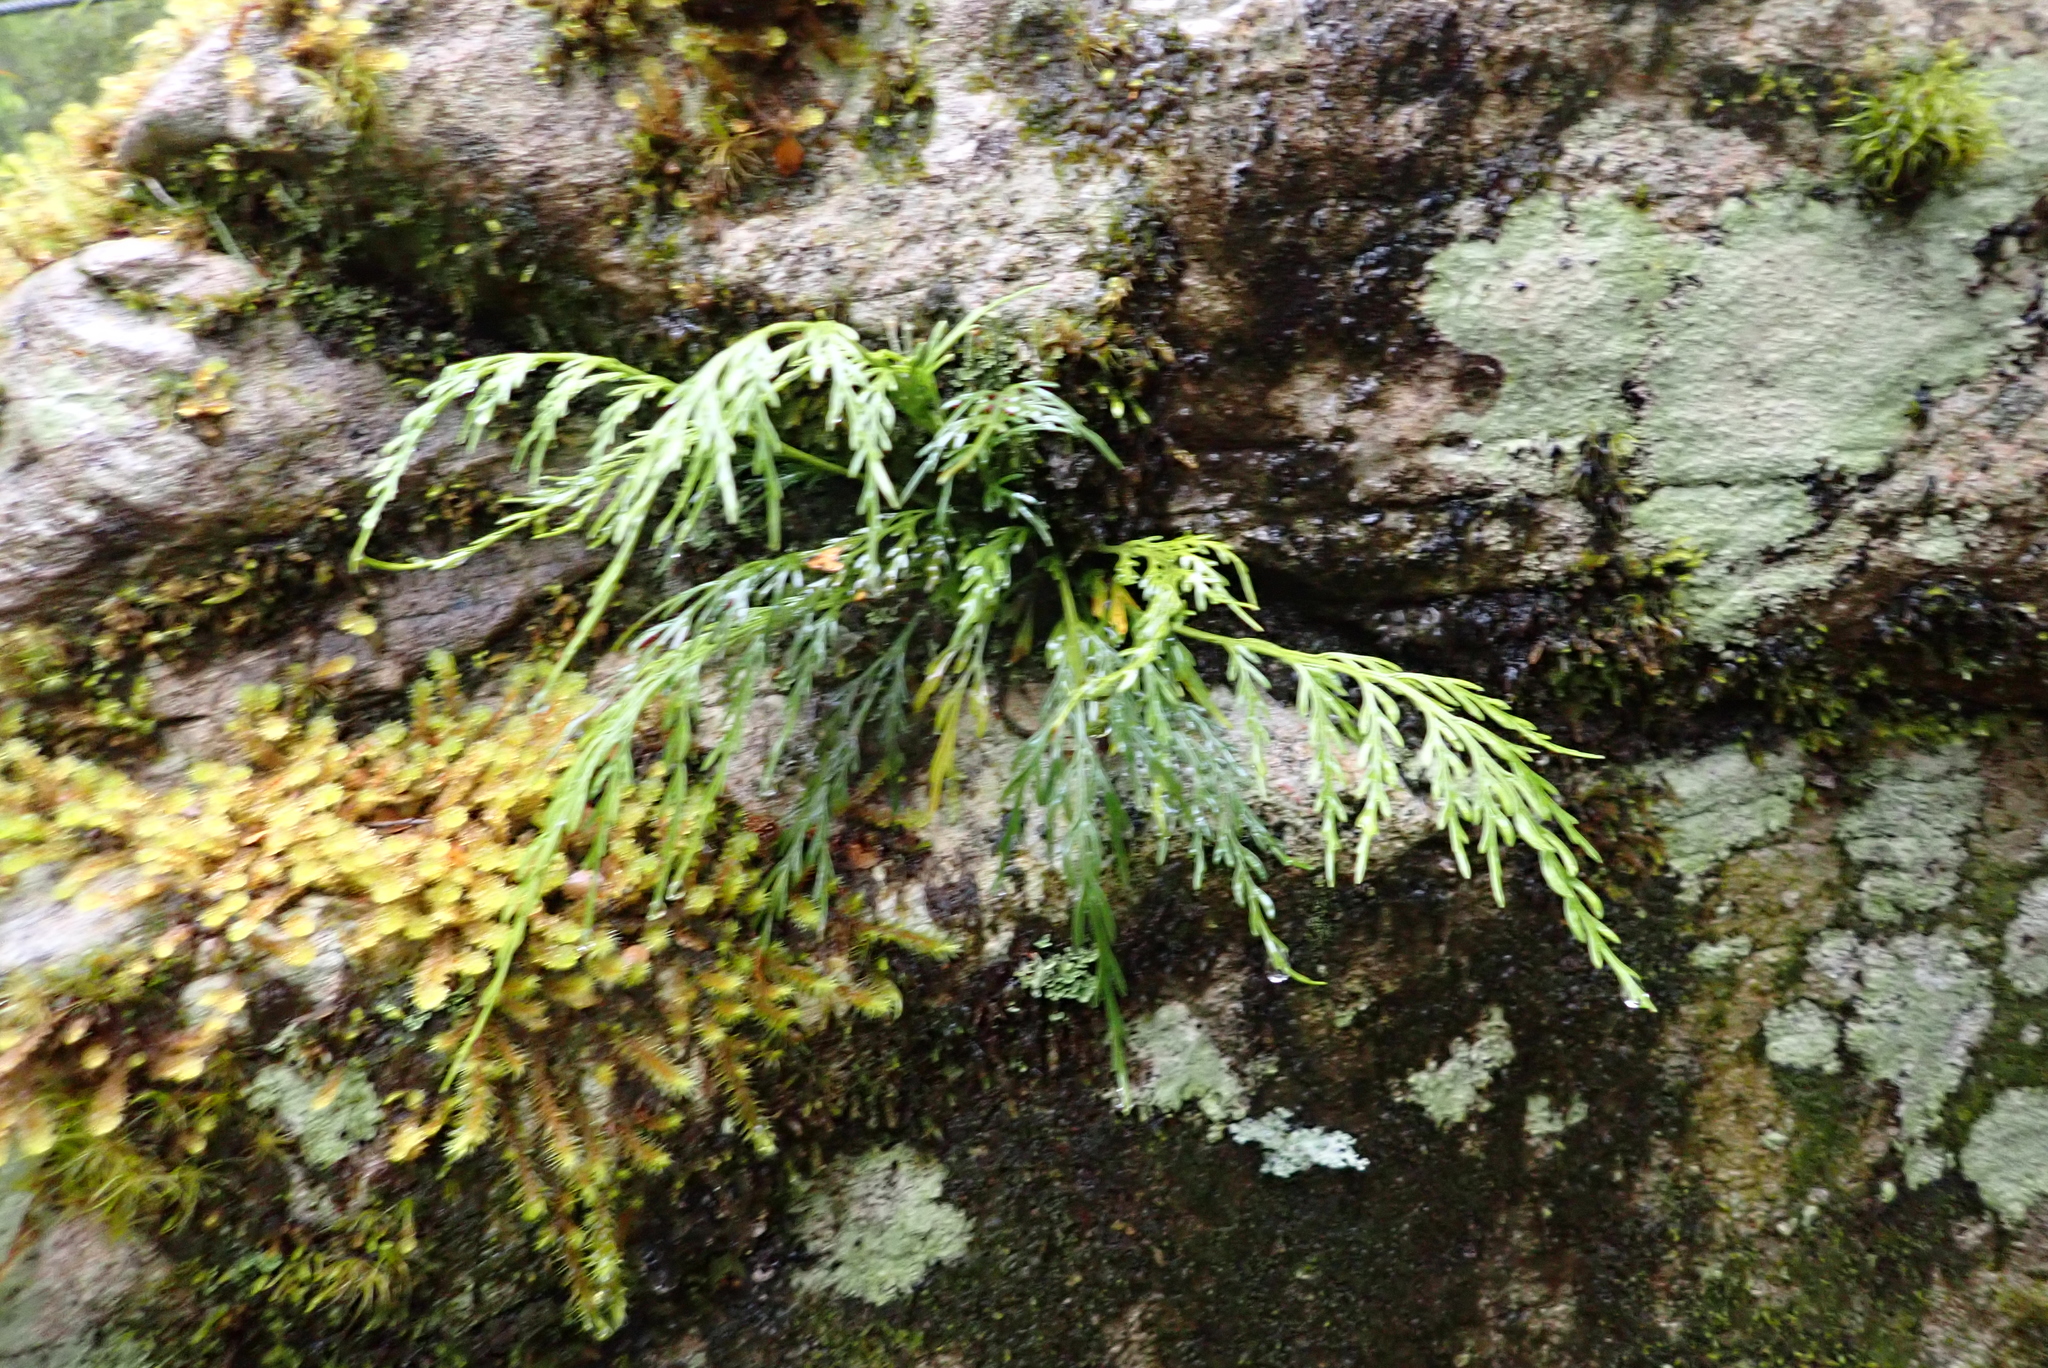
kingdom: Plantae
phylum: Tracheophyta
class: Polypodiopsida
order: Polypodiales
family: Aspleniaceae
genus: Asplenium
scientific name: Asplenium flaccidum
